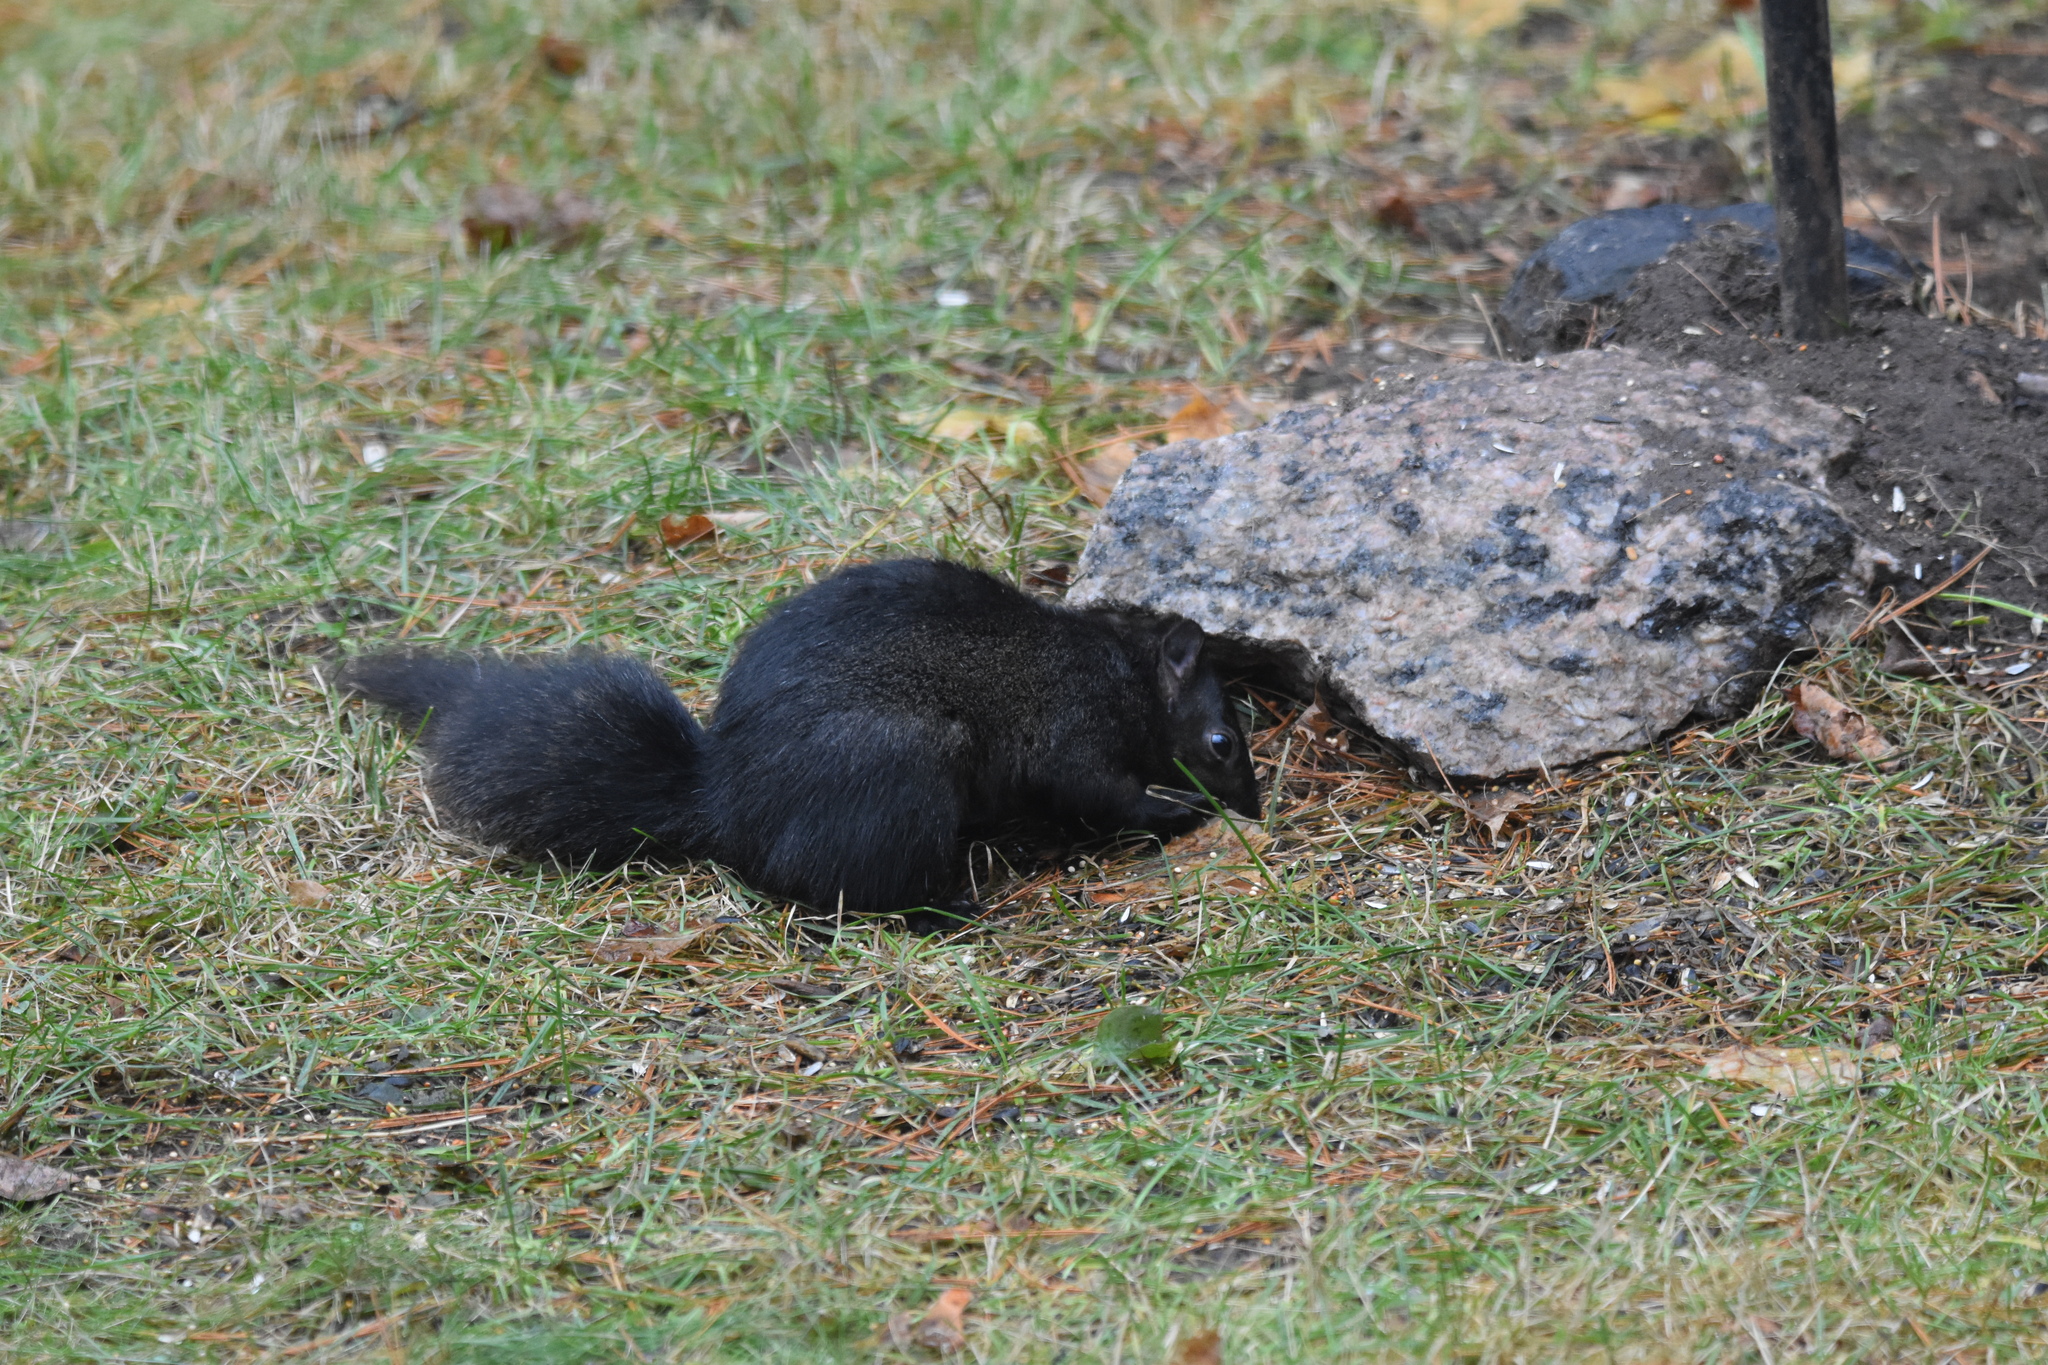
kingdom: Animalia
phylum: Chordata
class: Mammalia
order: Rodentia
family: Sciuridae
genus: Sciurus
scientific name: Sciurus carolinensis
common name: Eastern gray squirrel
